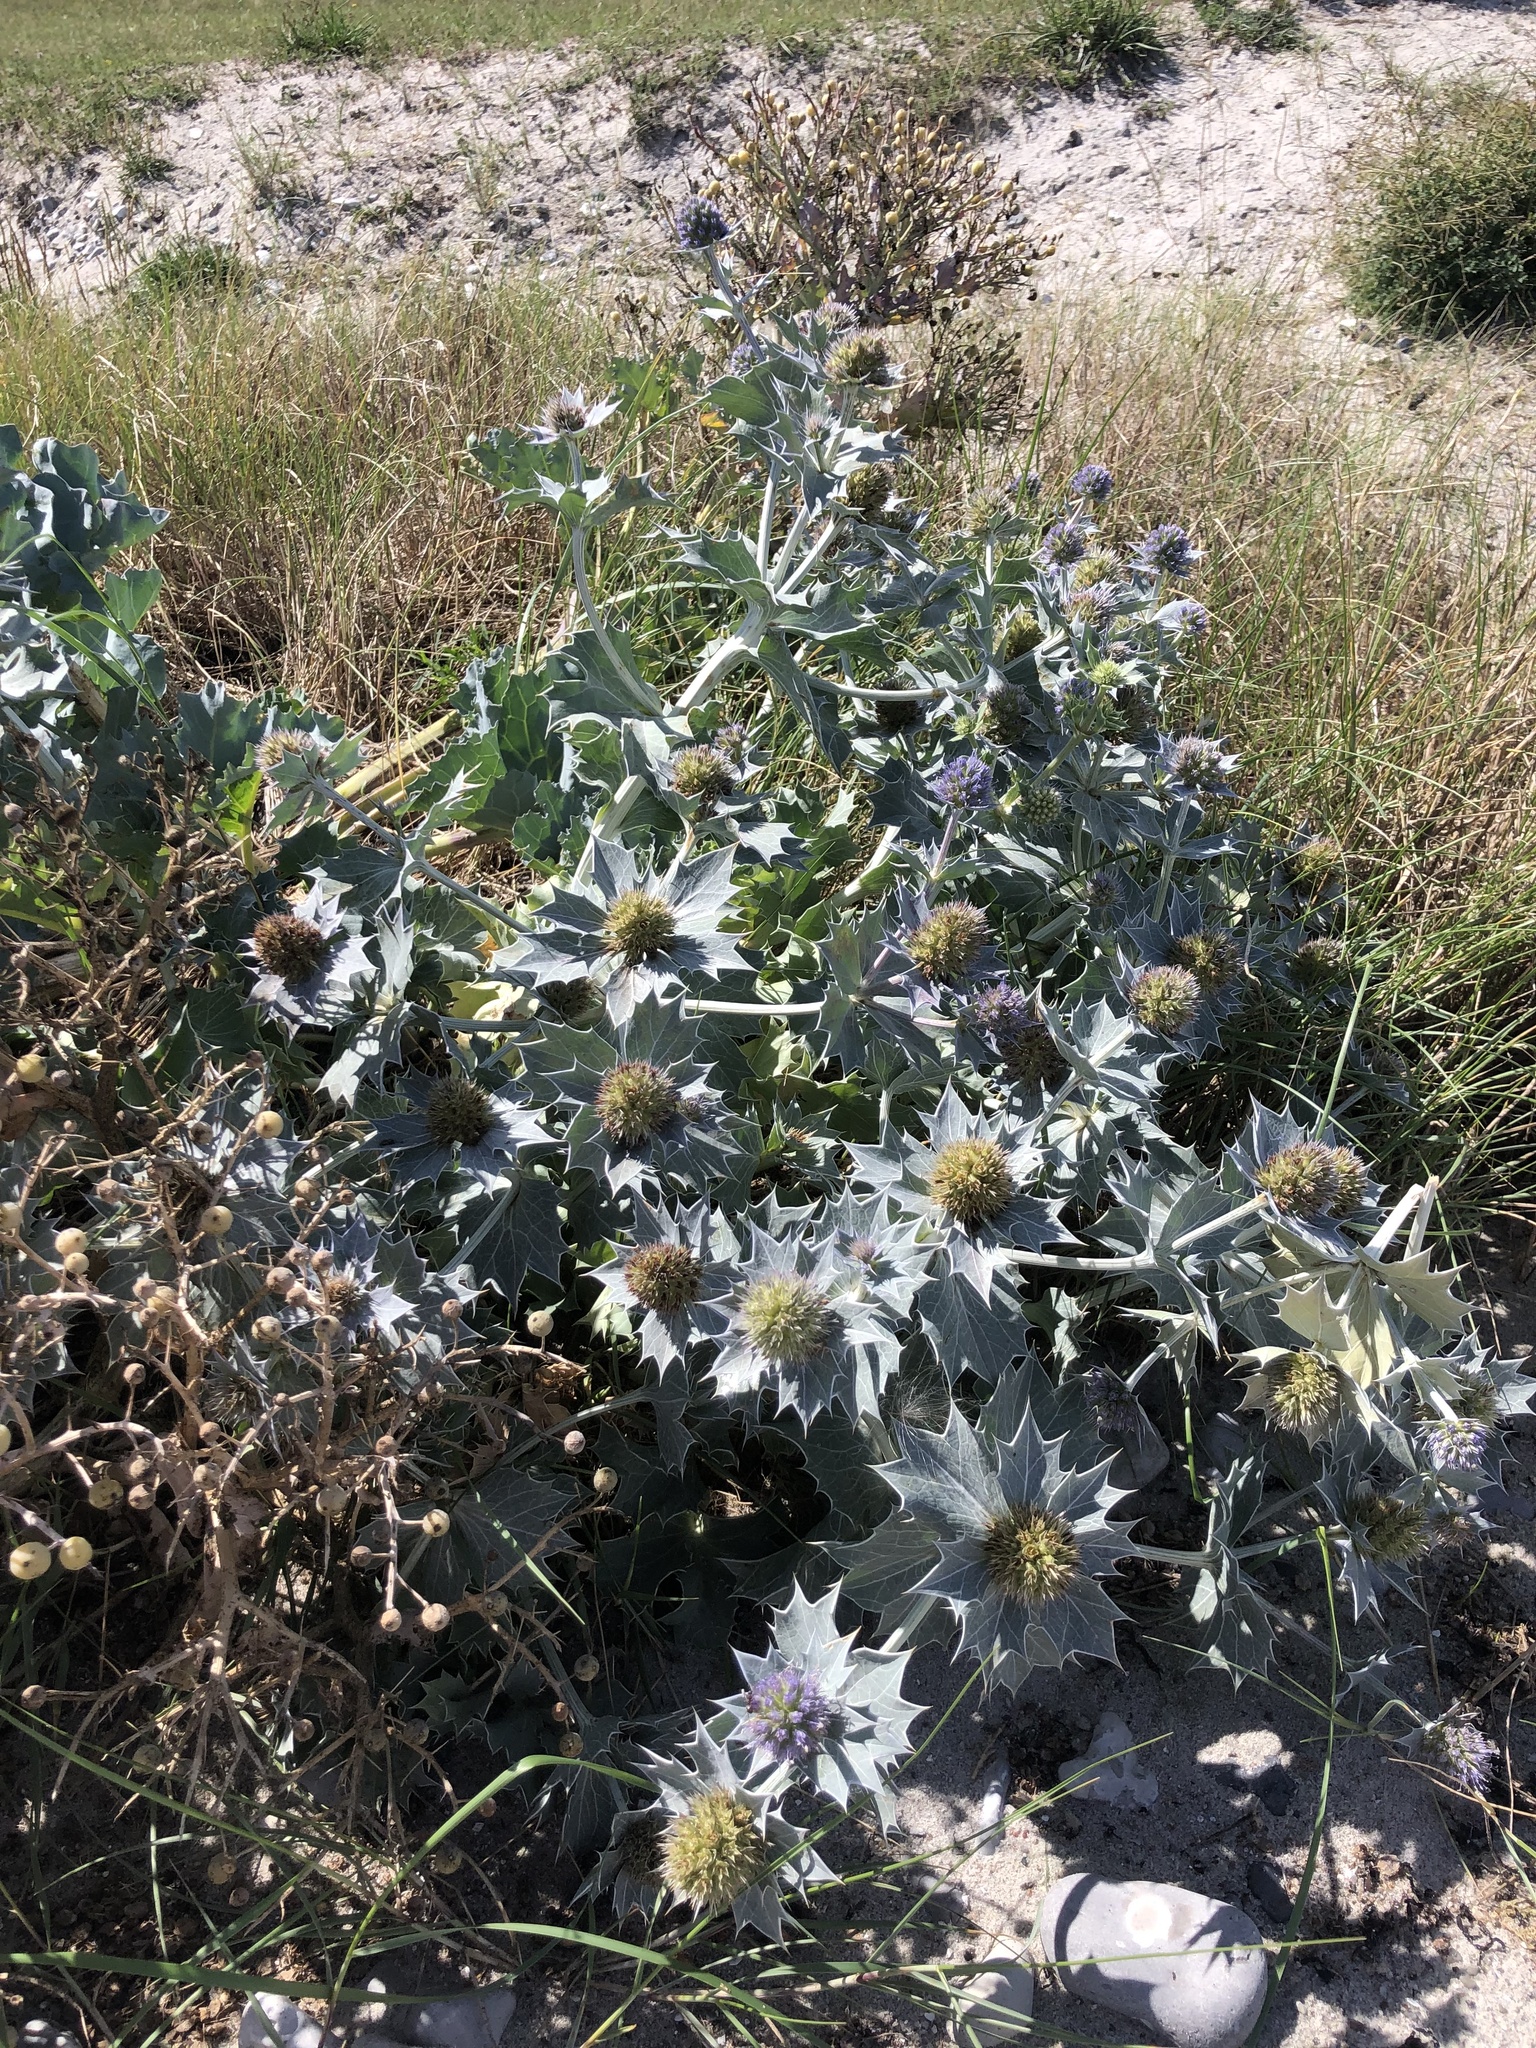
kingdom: Plantae
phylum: Tracheophyta
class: Magnoliopsida
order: Apiales
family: Apiaceae
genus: Eryngium
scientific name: Eryngium maritimum
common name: Sea-holly
